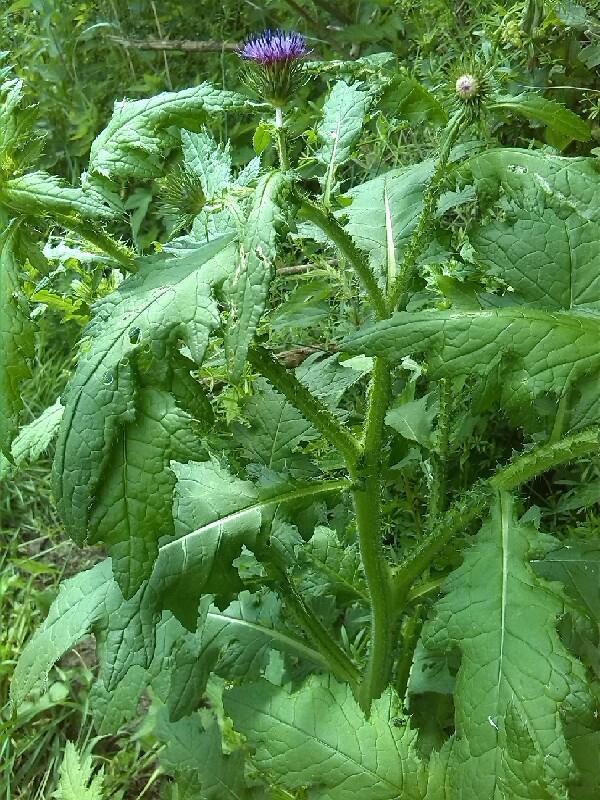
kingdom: Plantae
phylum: Tracheophyta
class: Magnoliopsida
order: Asterales
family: Asteraceae
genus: Carduus
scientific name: Carduus personata
